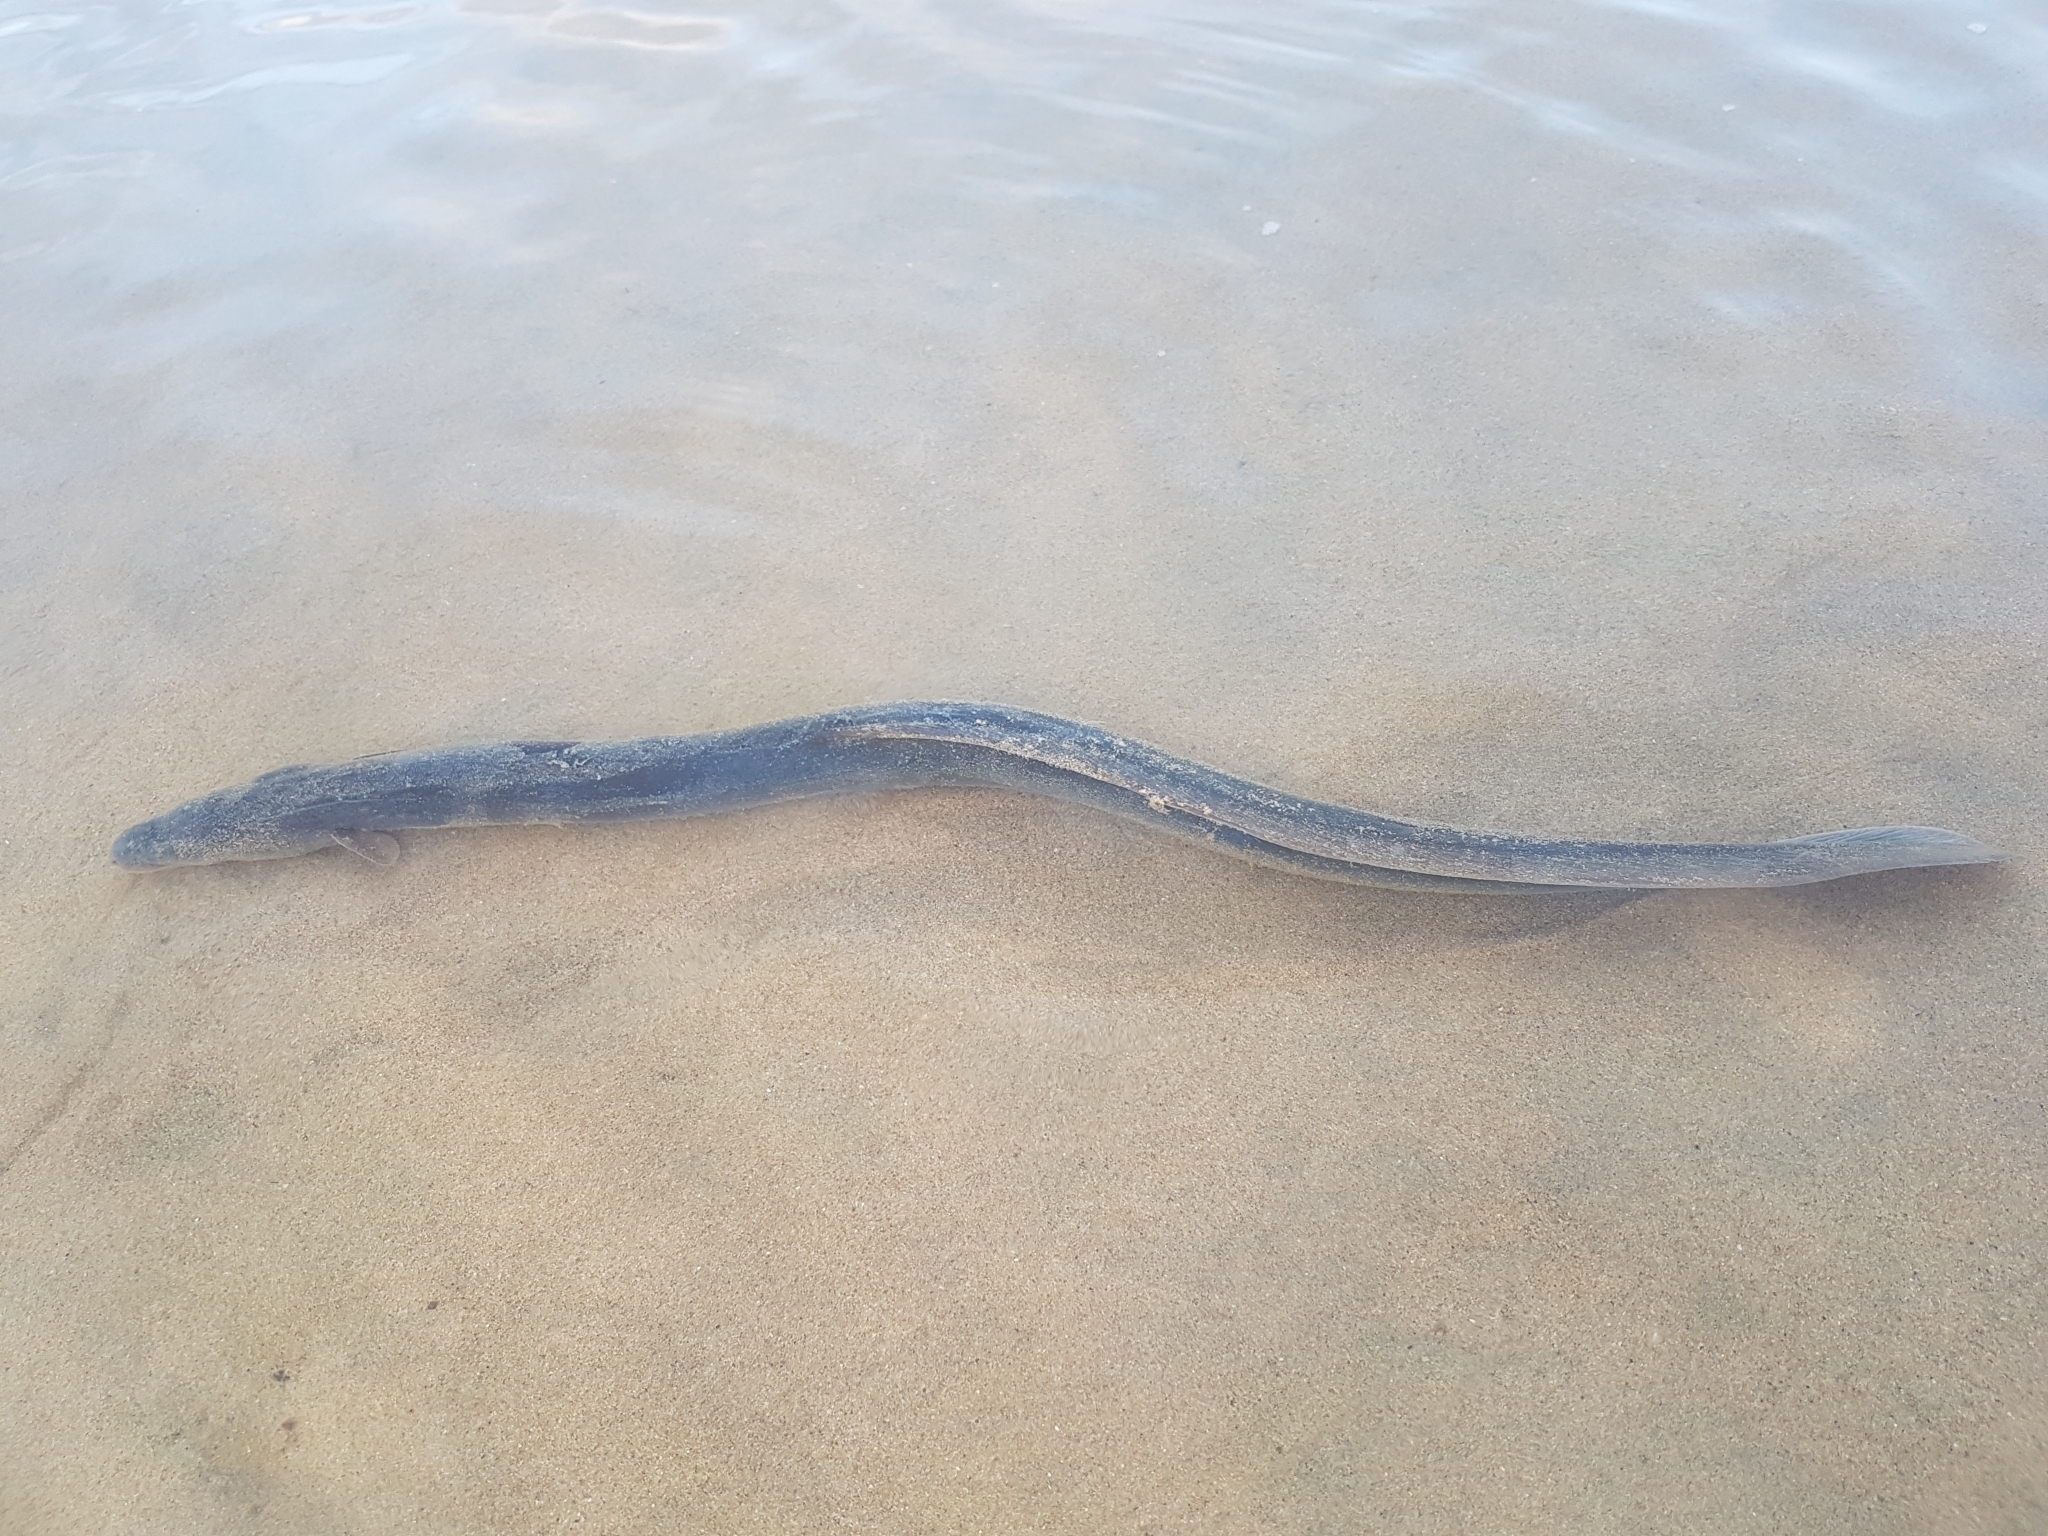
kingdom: Animalia
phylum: Chordata
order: Anguilliformes
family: Anguillidae
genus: Anguilla
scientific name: Anguilla australis
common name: Shortfin eel
